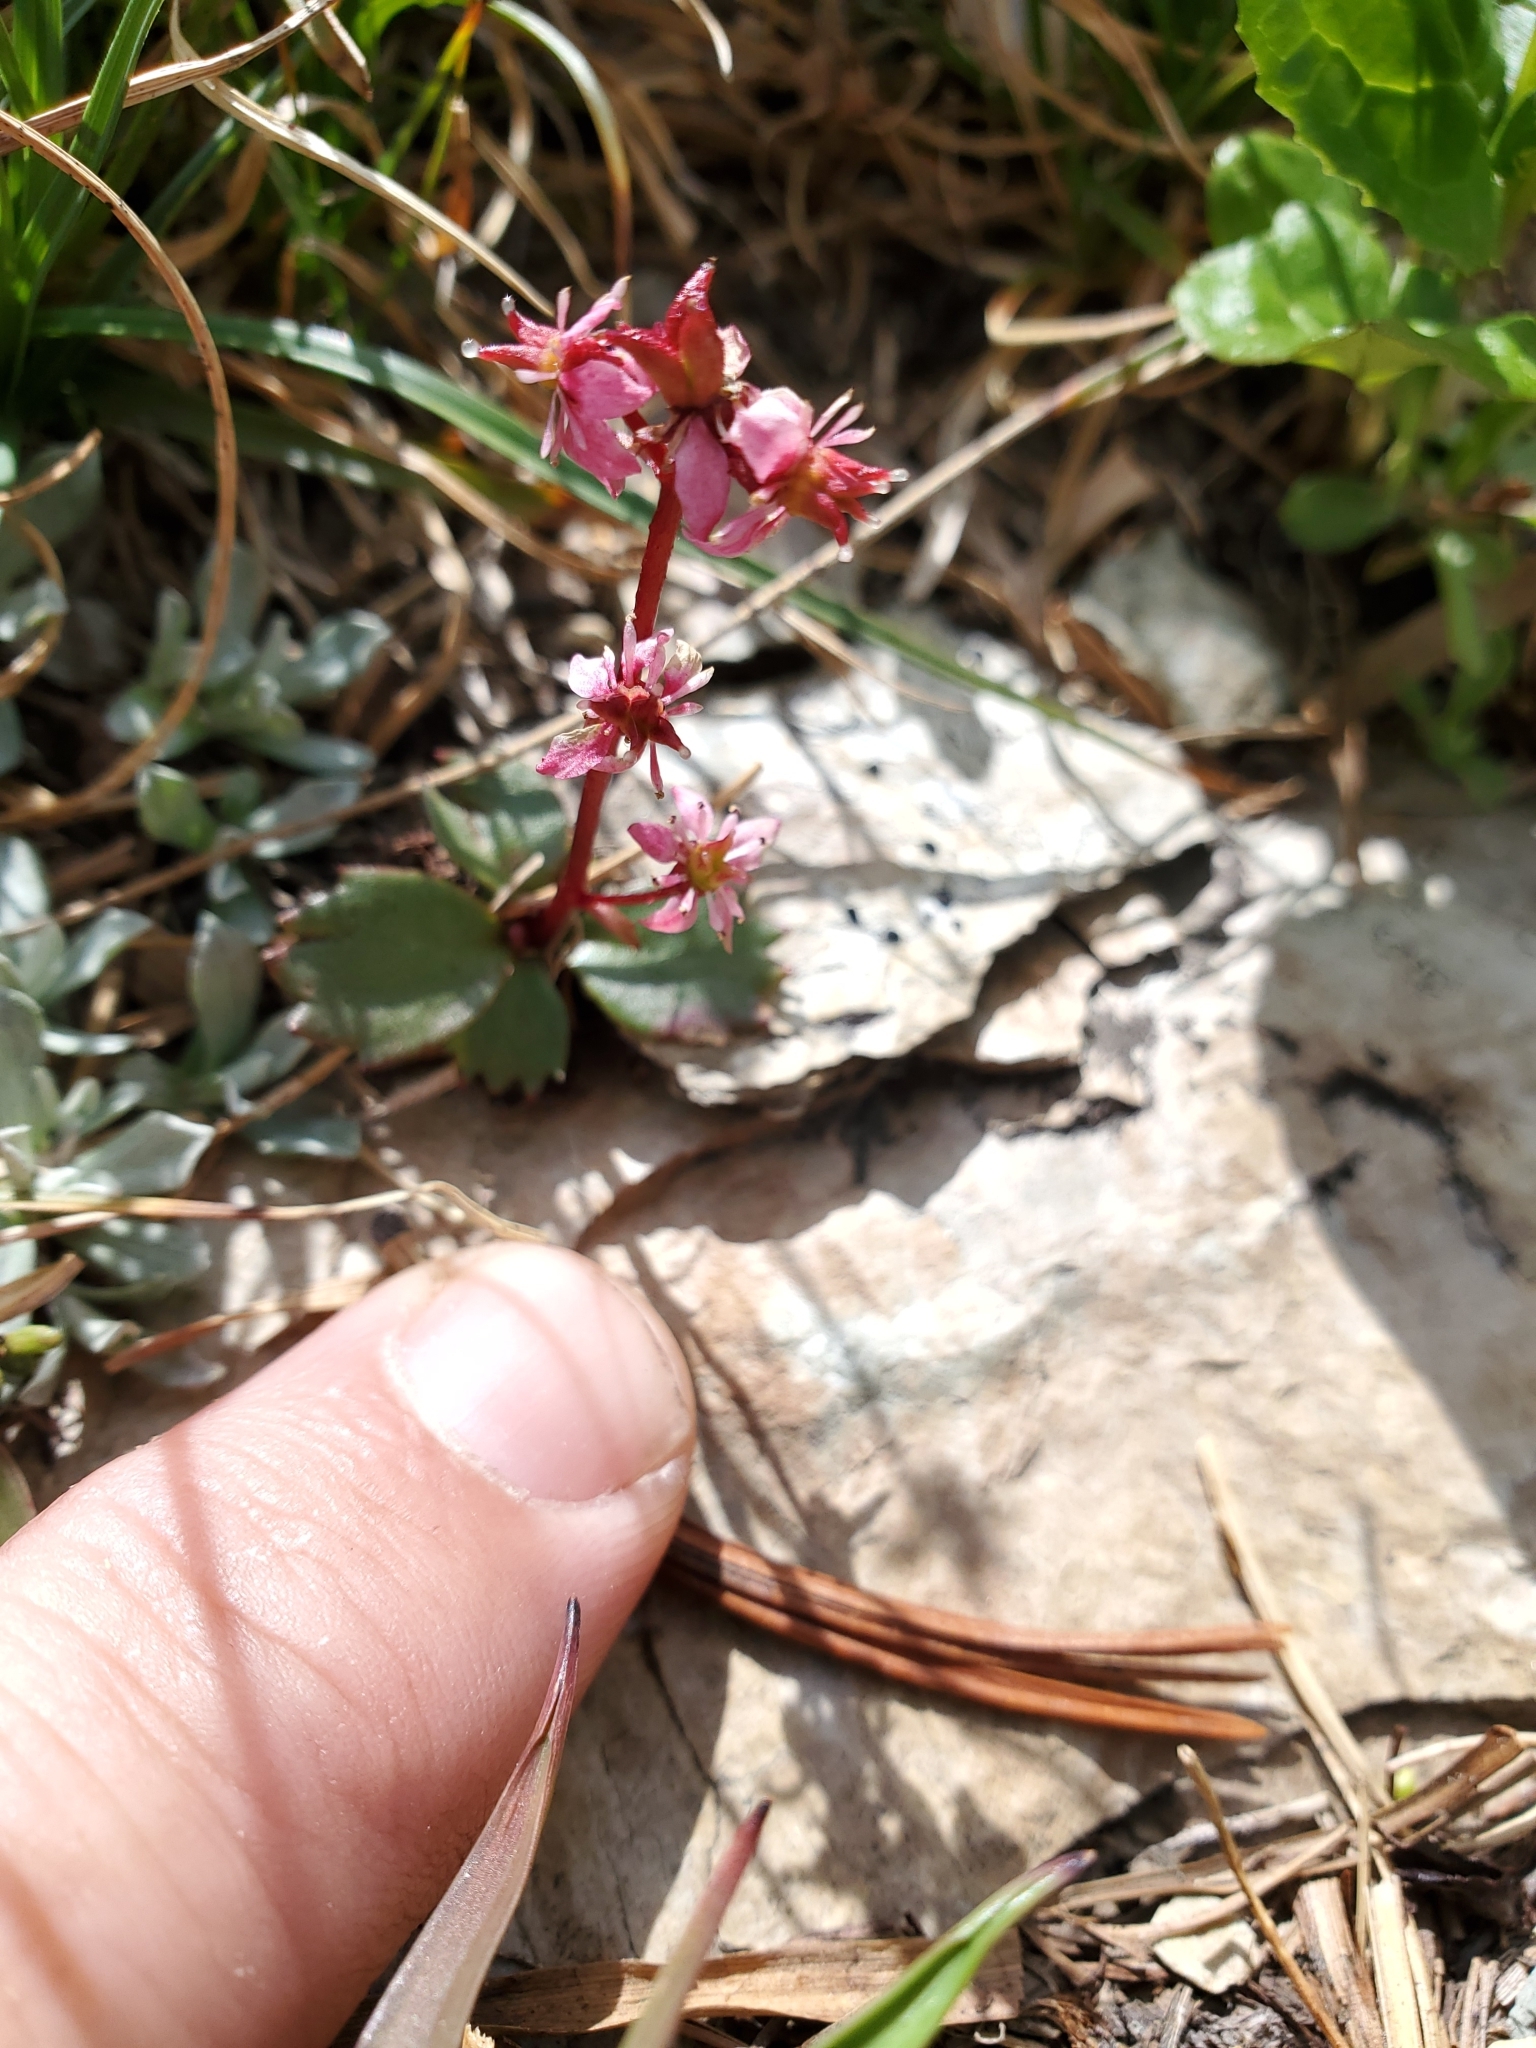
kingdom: Plantae
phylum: Tracheophyta
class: Magnoliopsida
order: Saxifragales
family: Saxifragaceae
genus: Micranthes
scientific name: Micranthes lyallii
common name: Lyall's saxifrage
